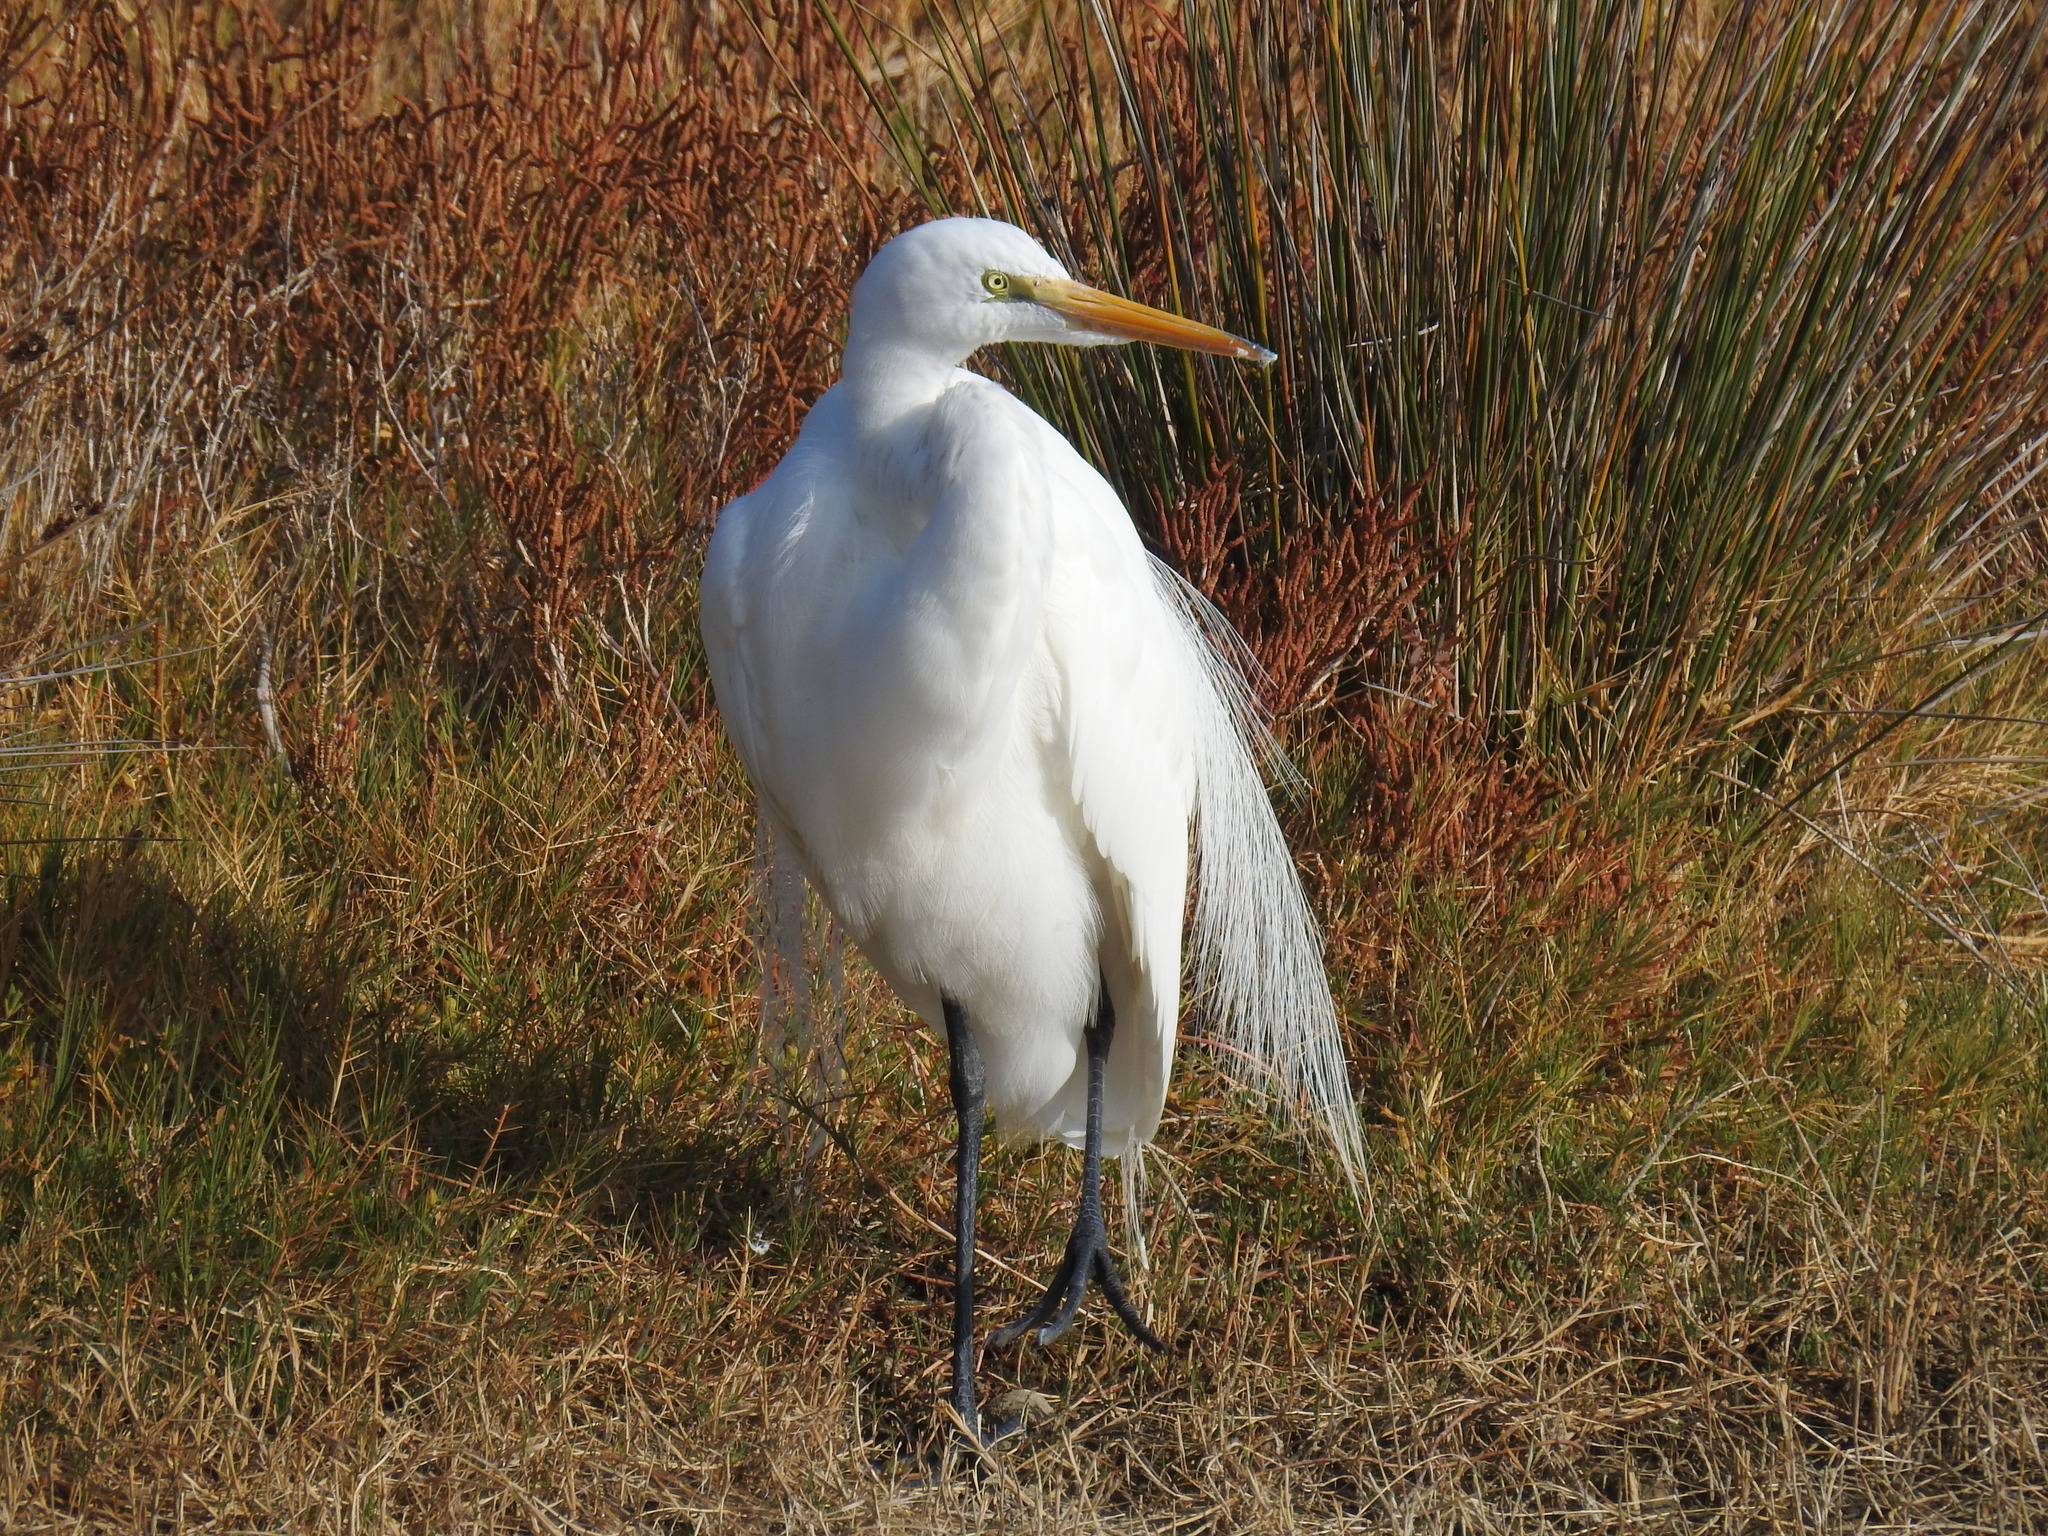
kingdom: Animalia
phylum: Chordata
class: Aves
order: Pelecaniformes
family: Ardeidae
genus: Ardea
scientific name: Ardea alba
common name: Great egret
